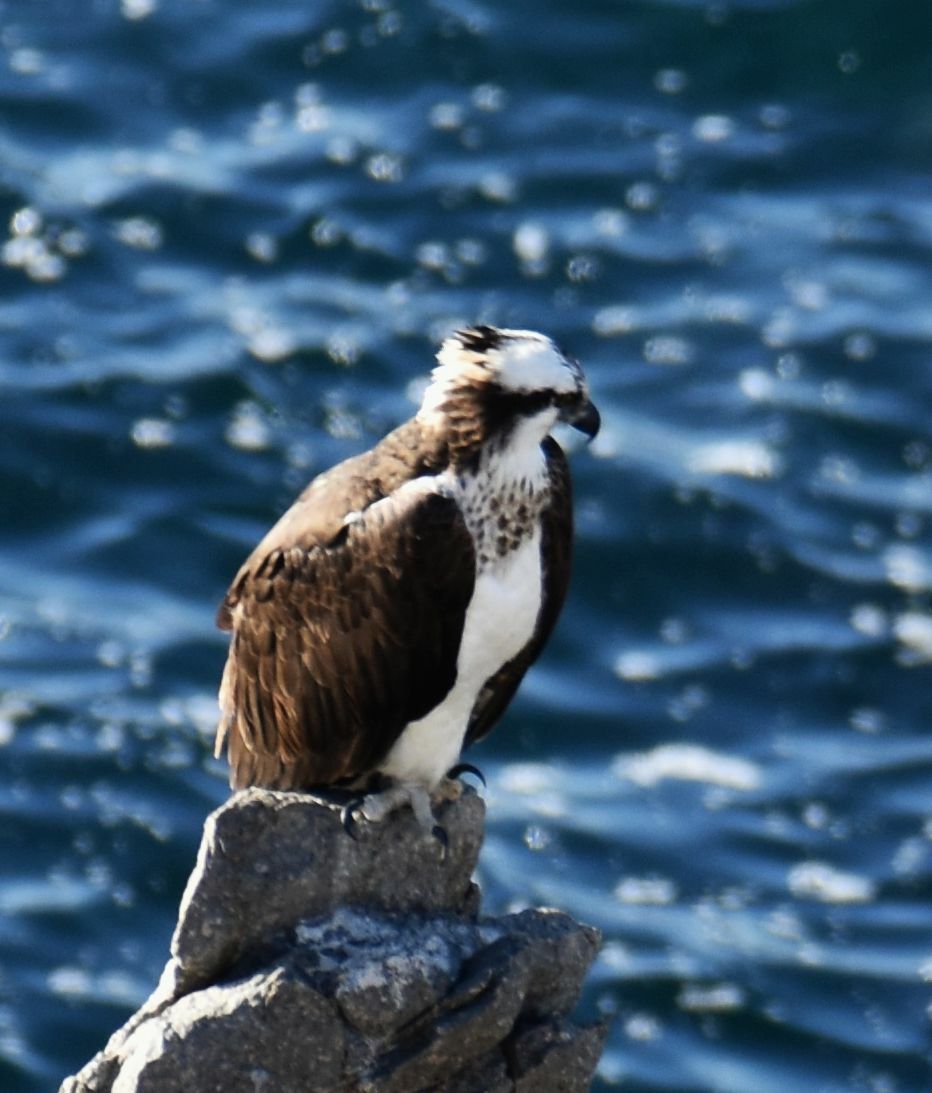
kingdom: Animalia
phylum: Chordata
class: Aves
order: Accipitriformes
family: Pandionidae
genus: Pandion
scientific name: Pandion haliaetus
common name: Osprey
